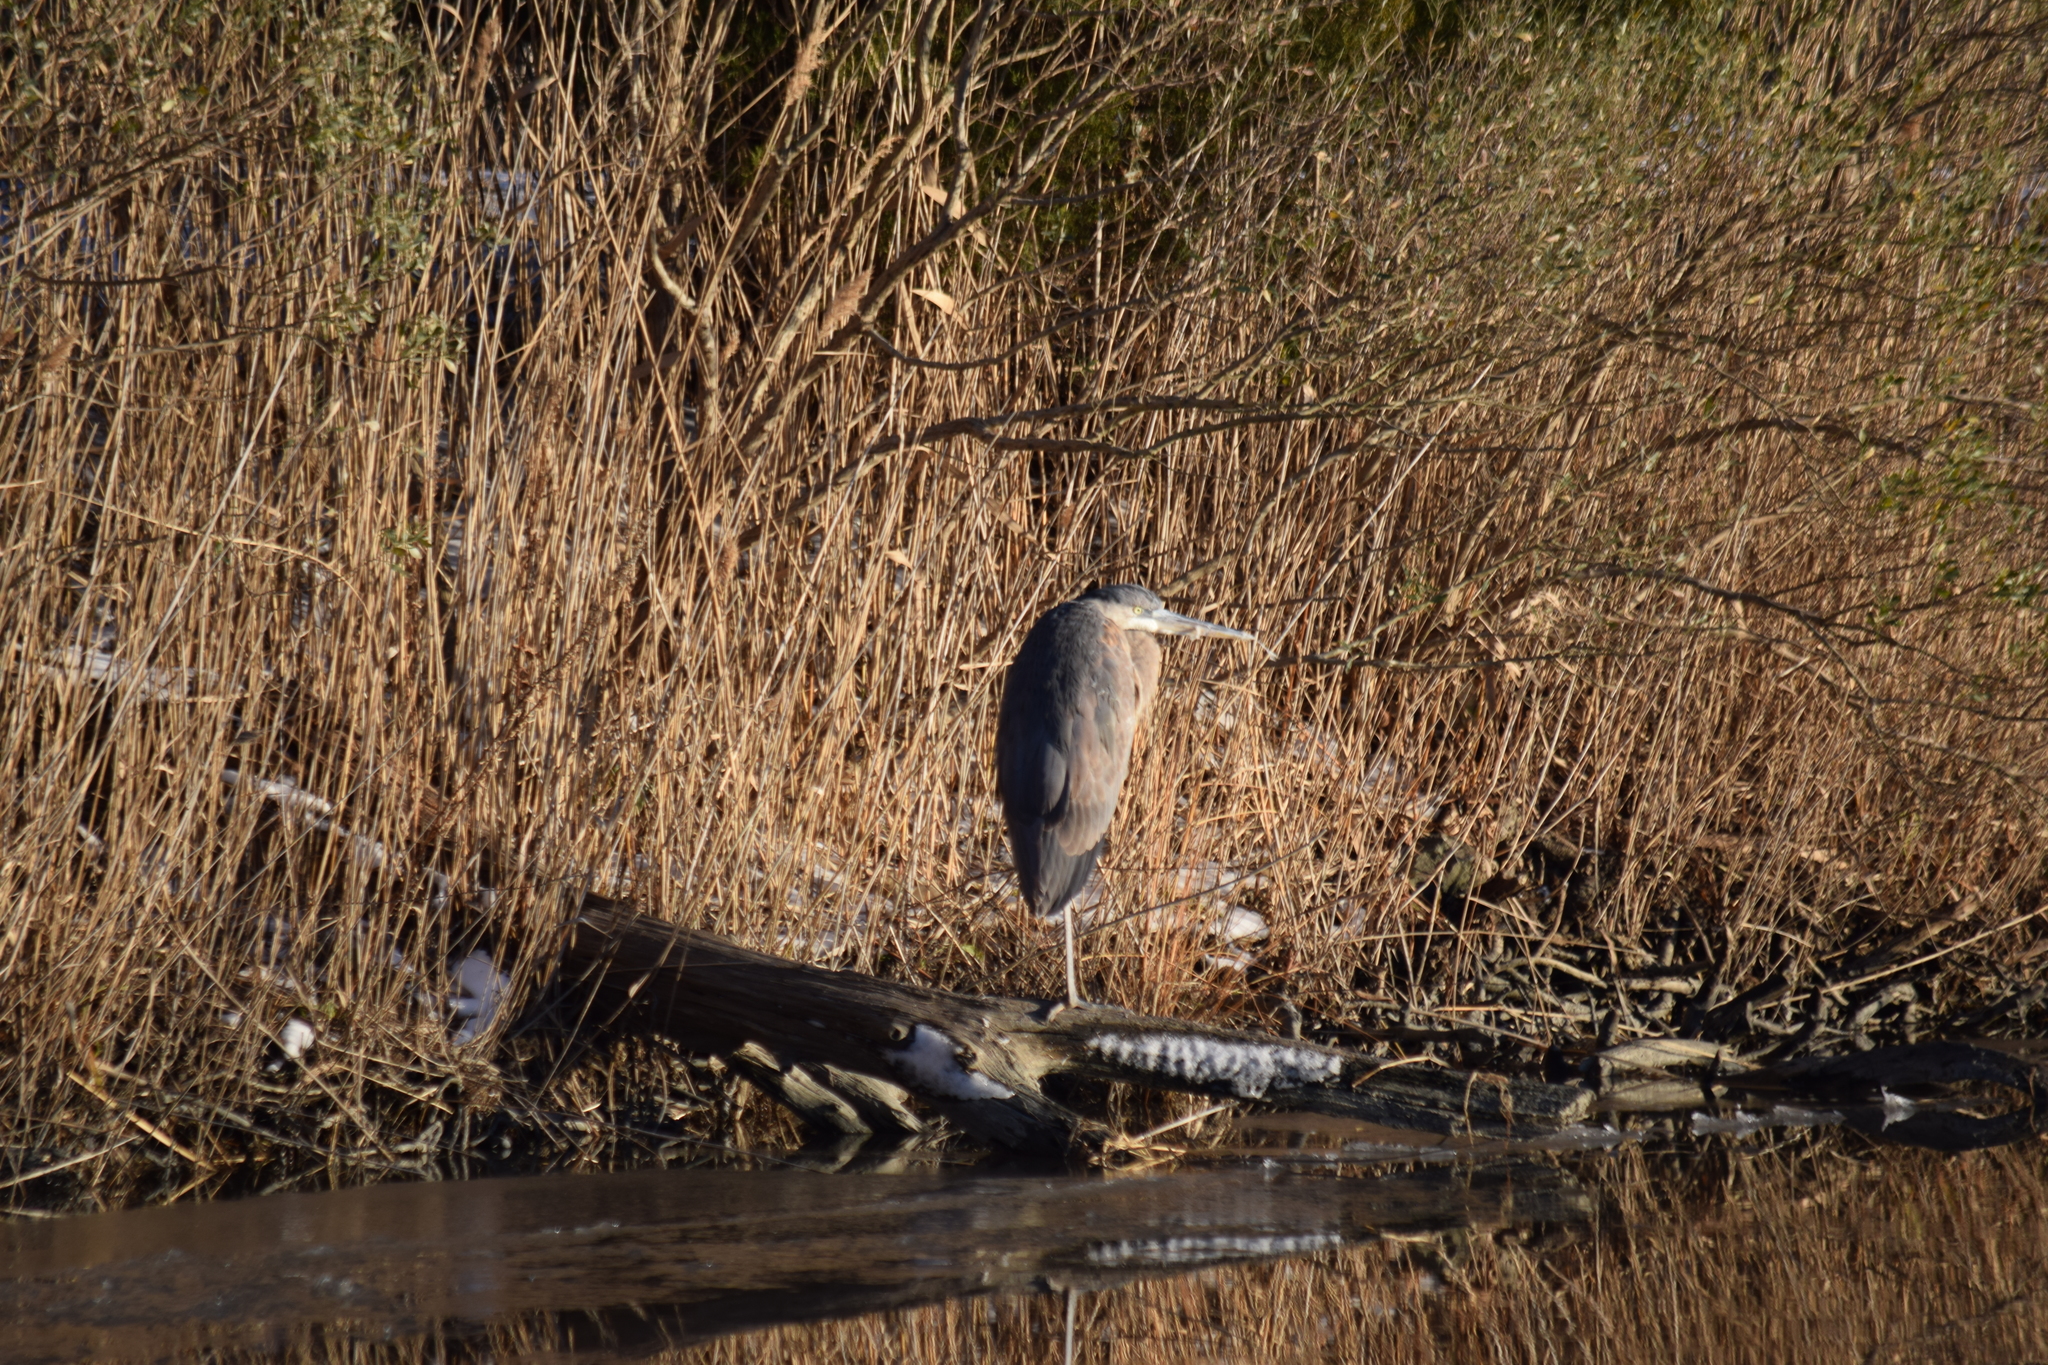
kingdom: Animalia
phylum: Chordata
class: Aves
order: Pelecaniformes
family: Ardeidae
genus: Ardea
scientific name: Ardea herodias
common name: Great blue heron
